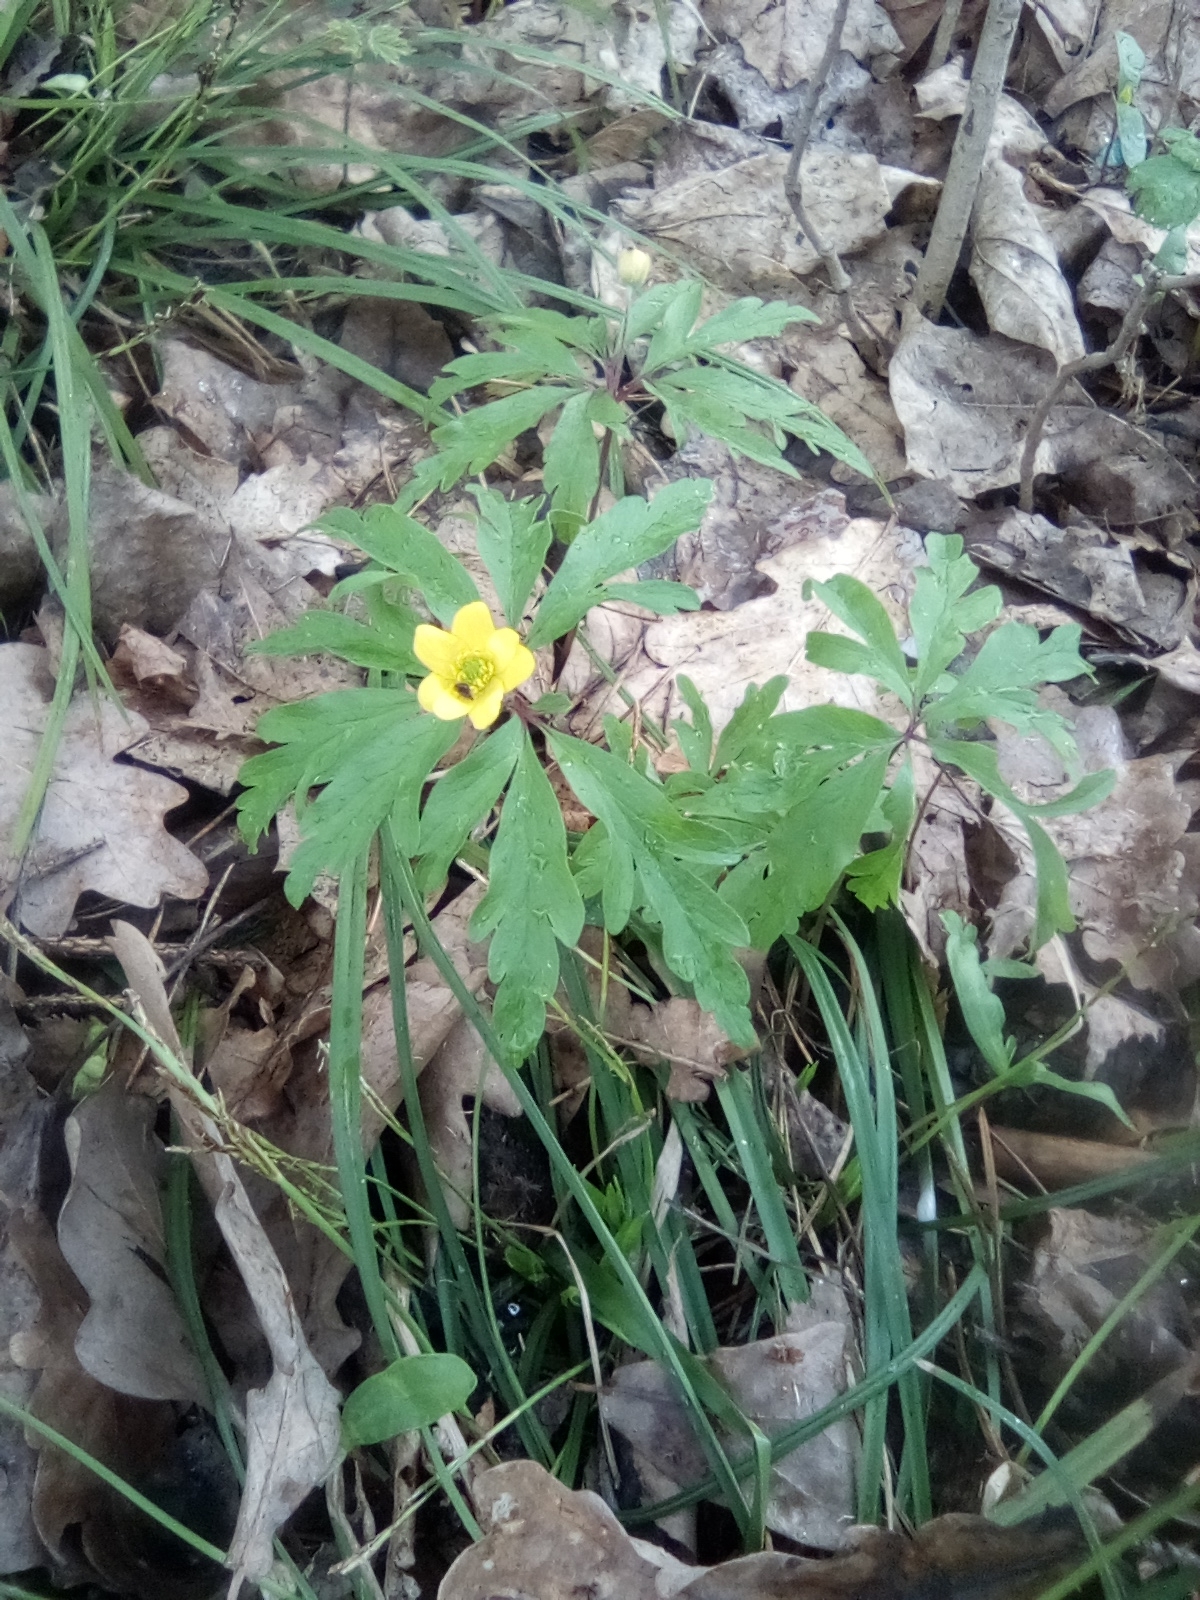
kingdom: Plantae
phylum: Tracheophyta
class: Magnoliopsida
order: Ranunculales
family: Ranunculaceae
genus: Anemone
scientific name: Anemone ranunculoides
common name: Yellow anemone
